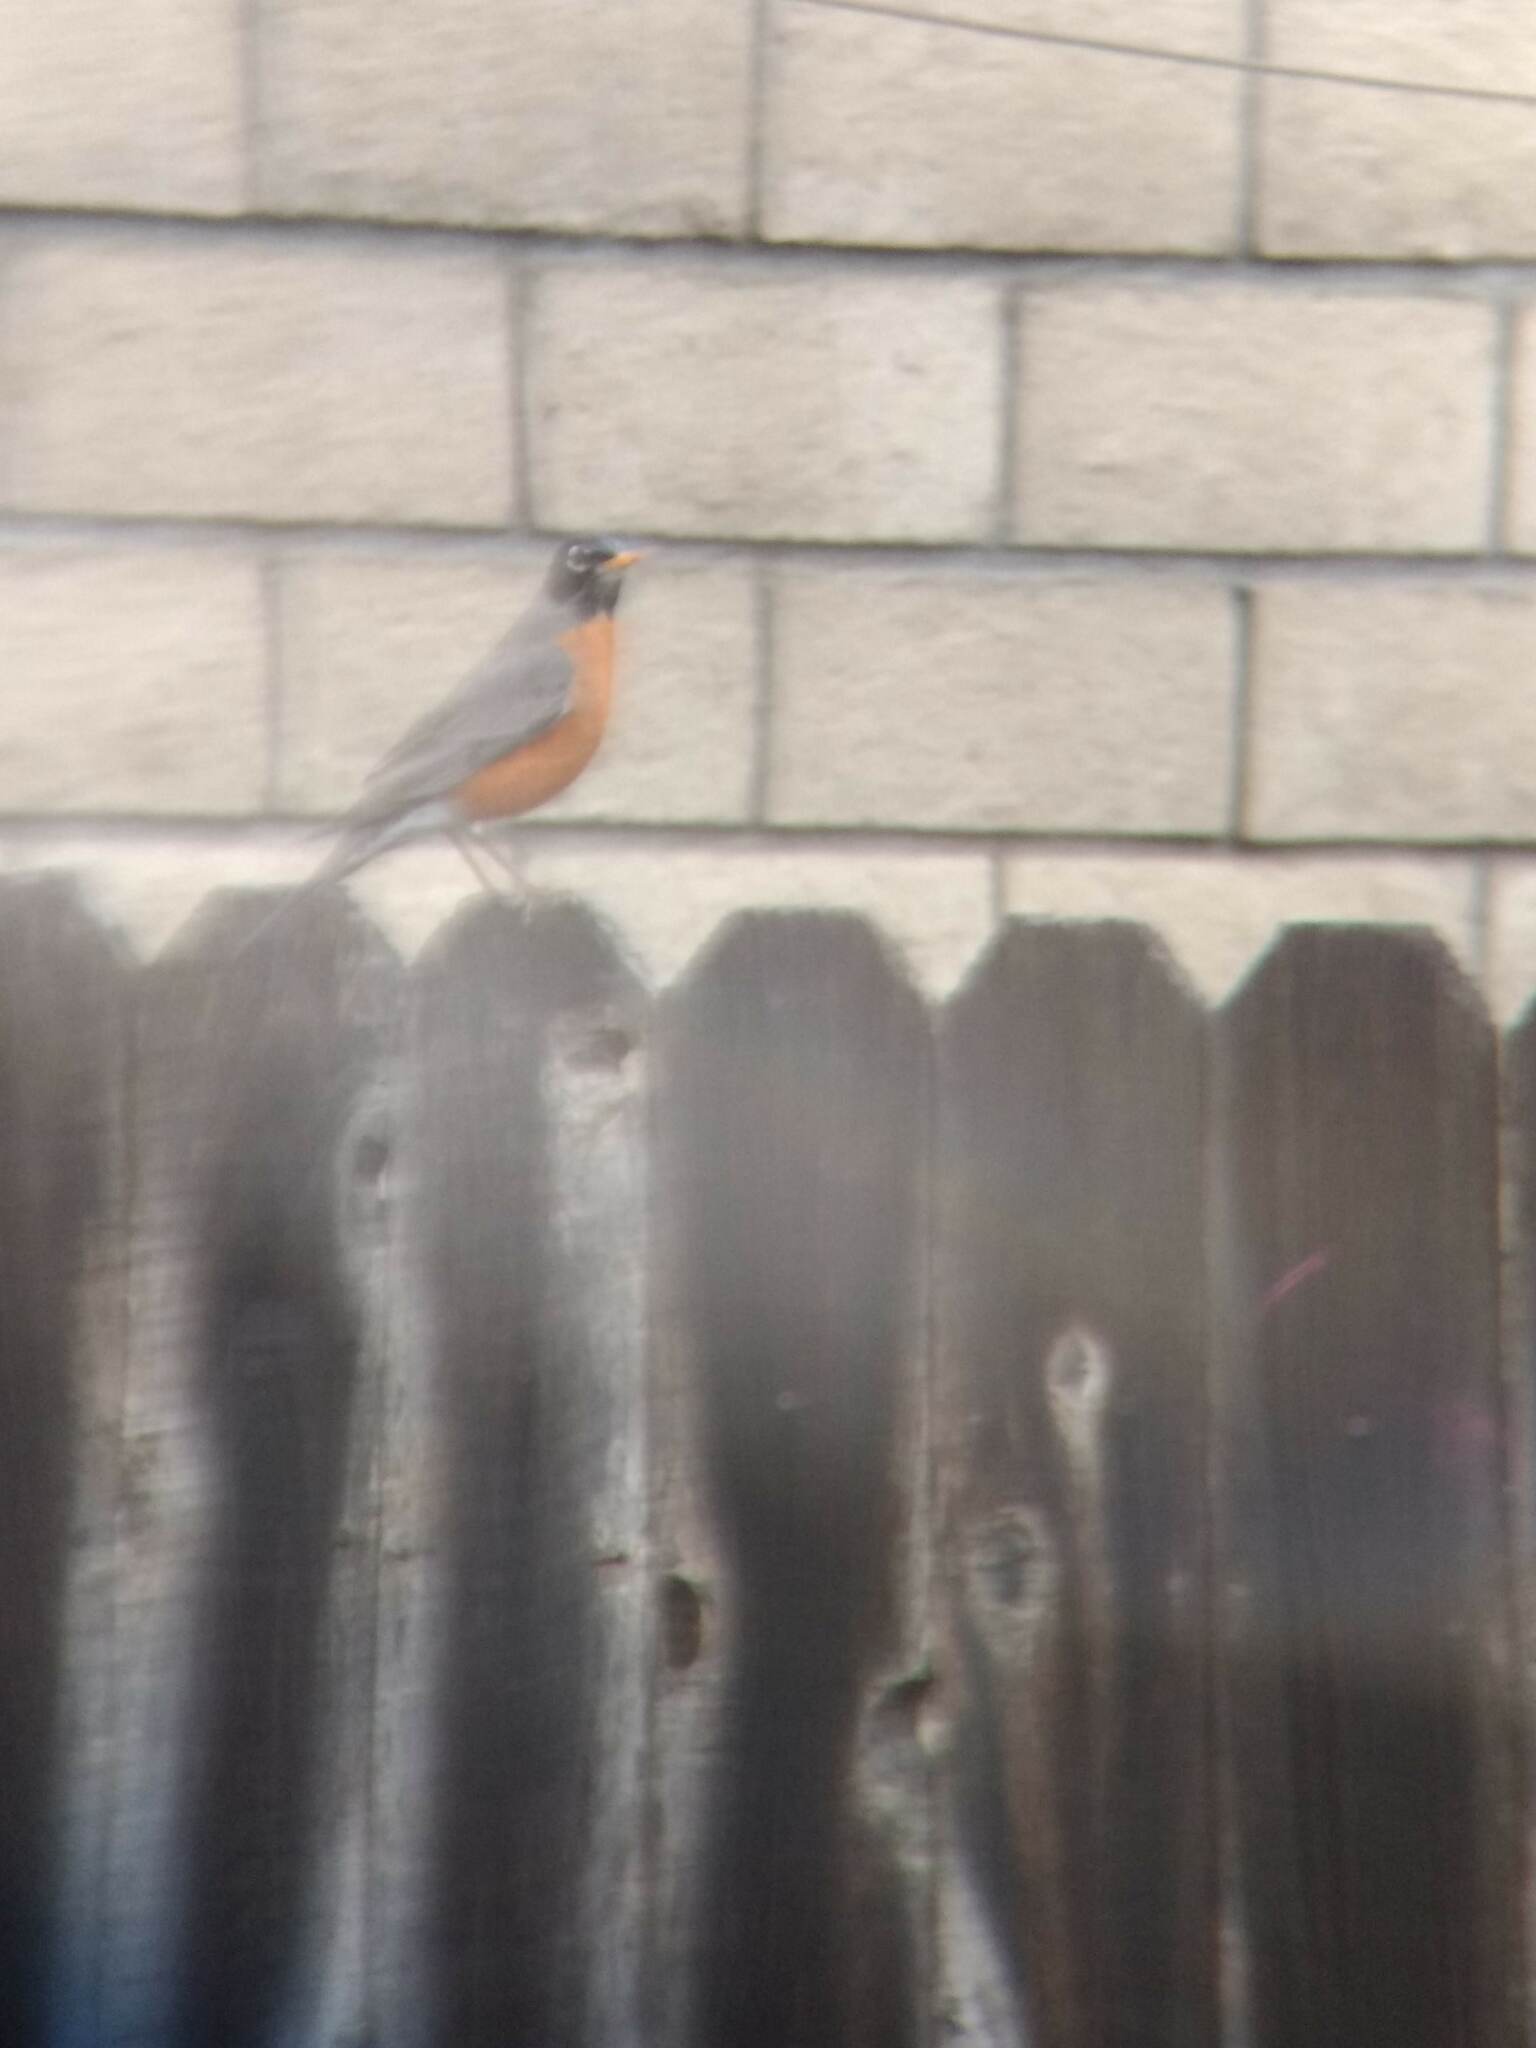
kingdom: Animalia
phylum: Chordata
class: Aves
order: Passeriformes
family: Turdidae
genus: Turdus
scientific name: Turdus migratorius
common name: American robin
